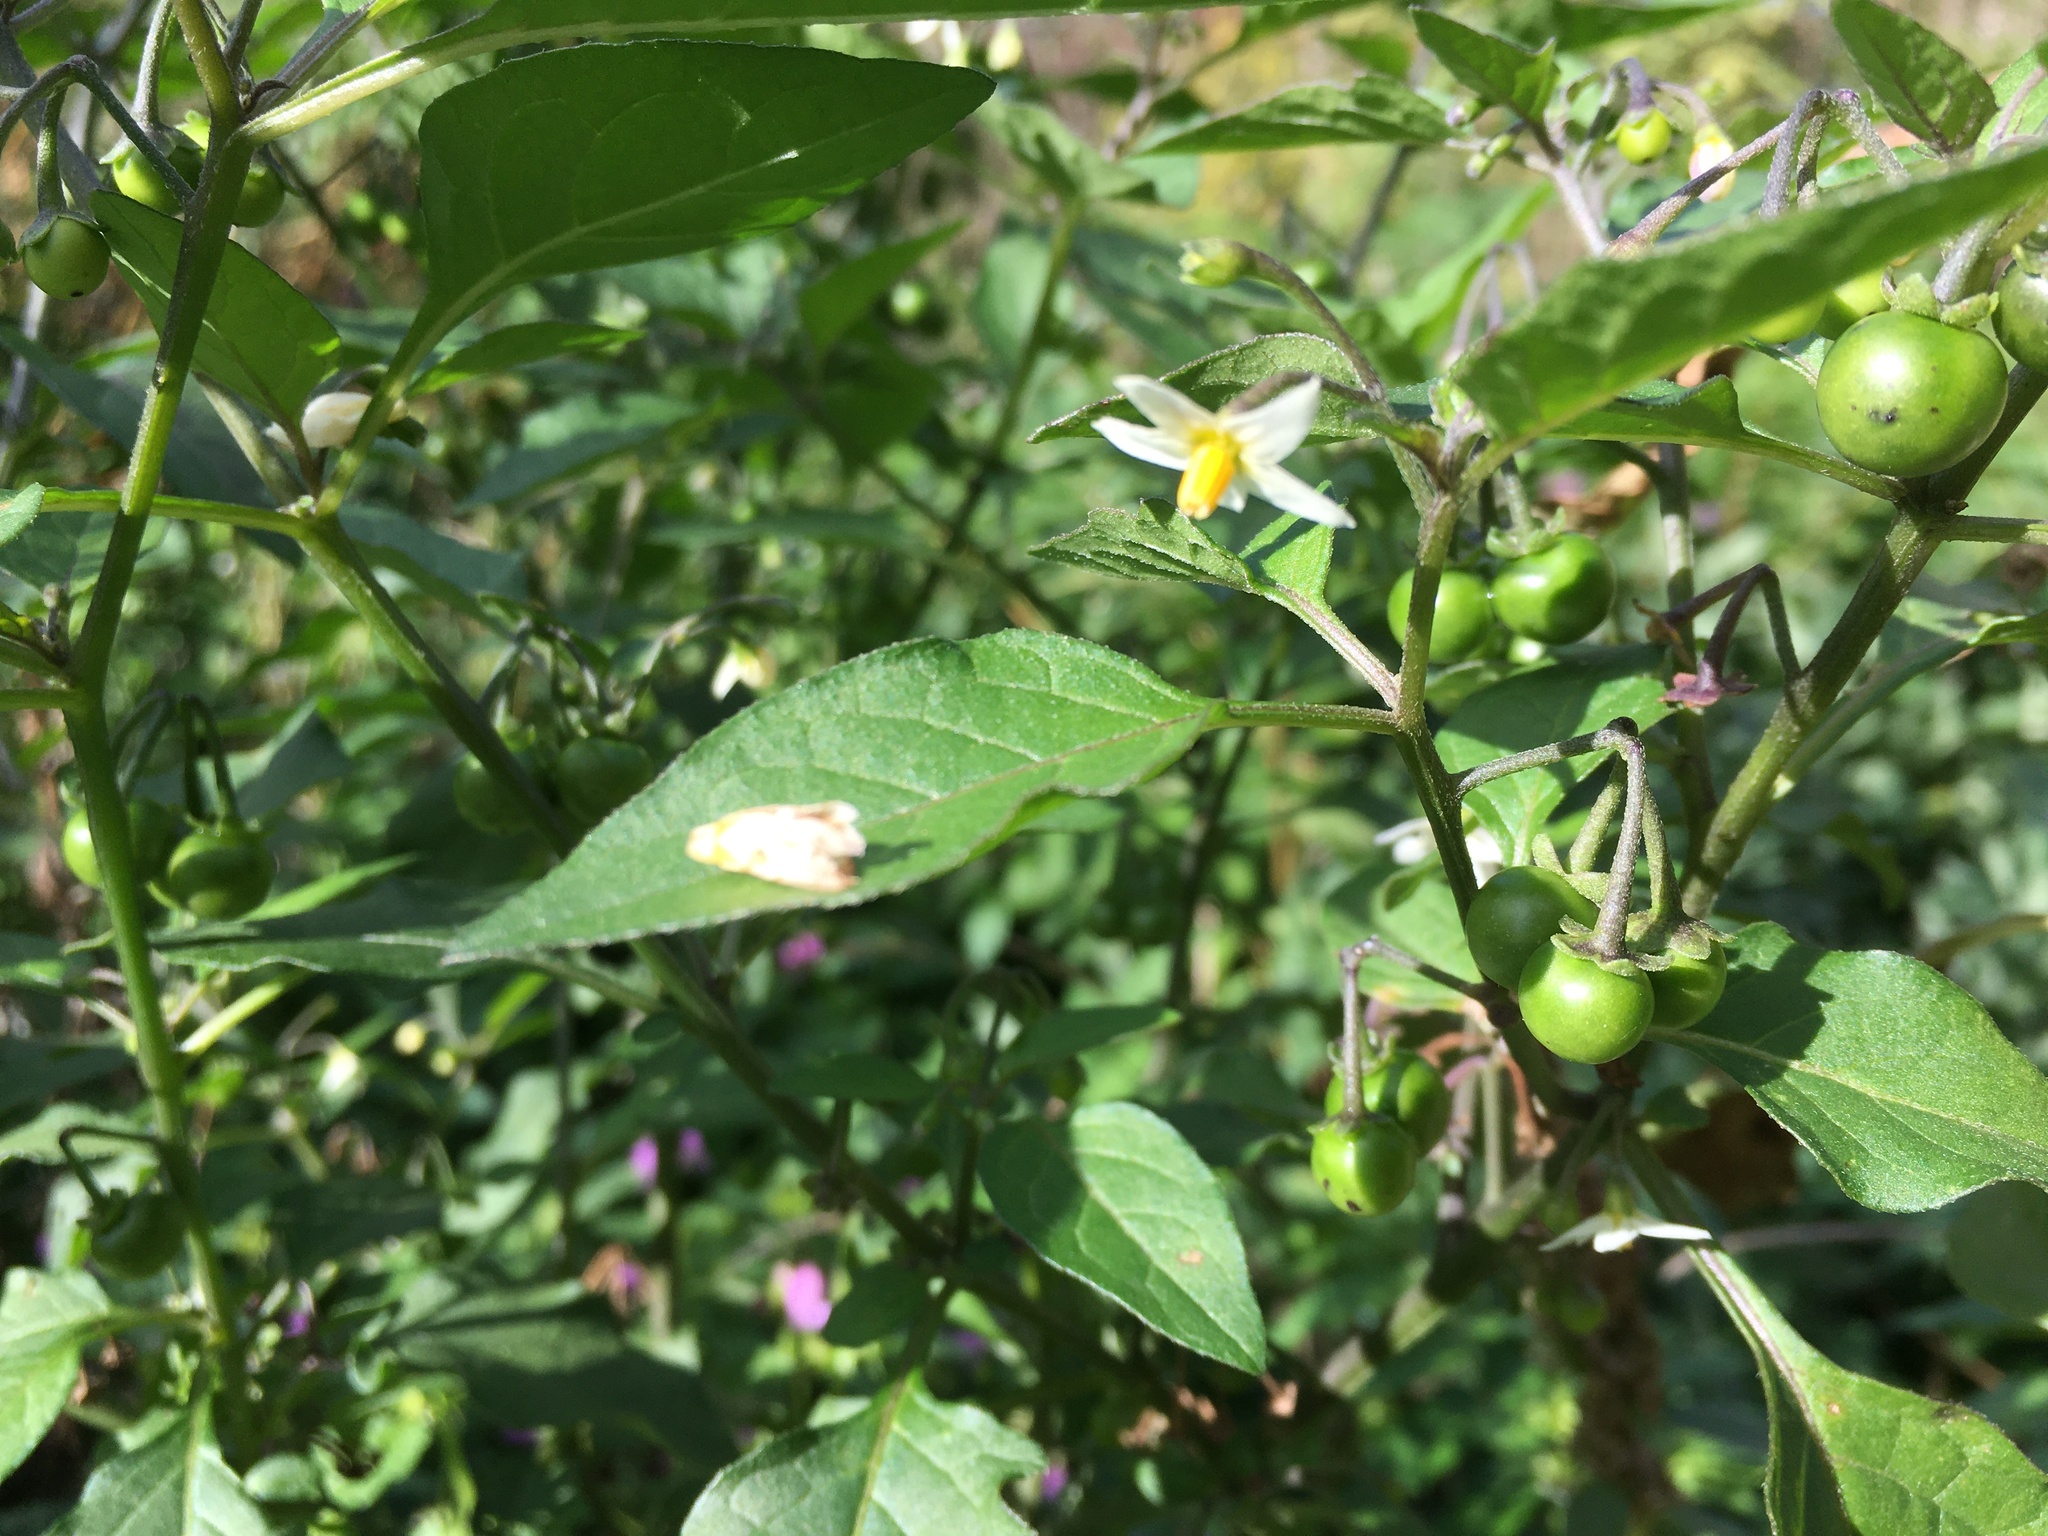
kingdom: Plantae
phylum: Tracheophyta
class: Magnoliopsida
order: Solanales
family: Solanaceae
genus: Solanum
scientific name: Solanum nigrum
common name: Black nightshade
